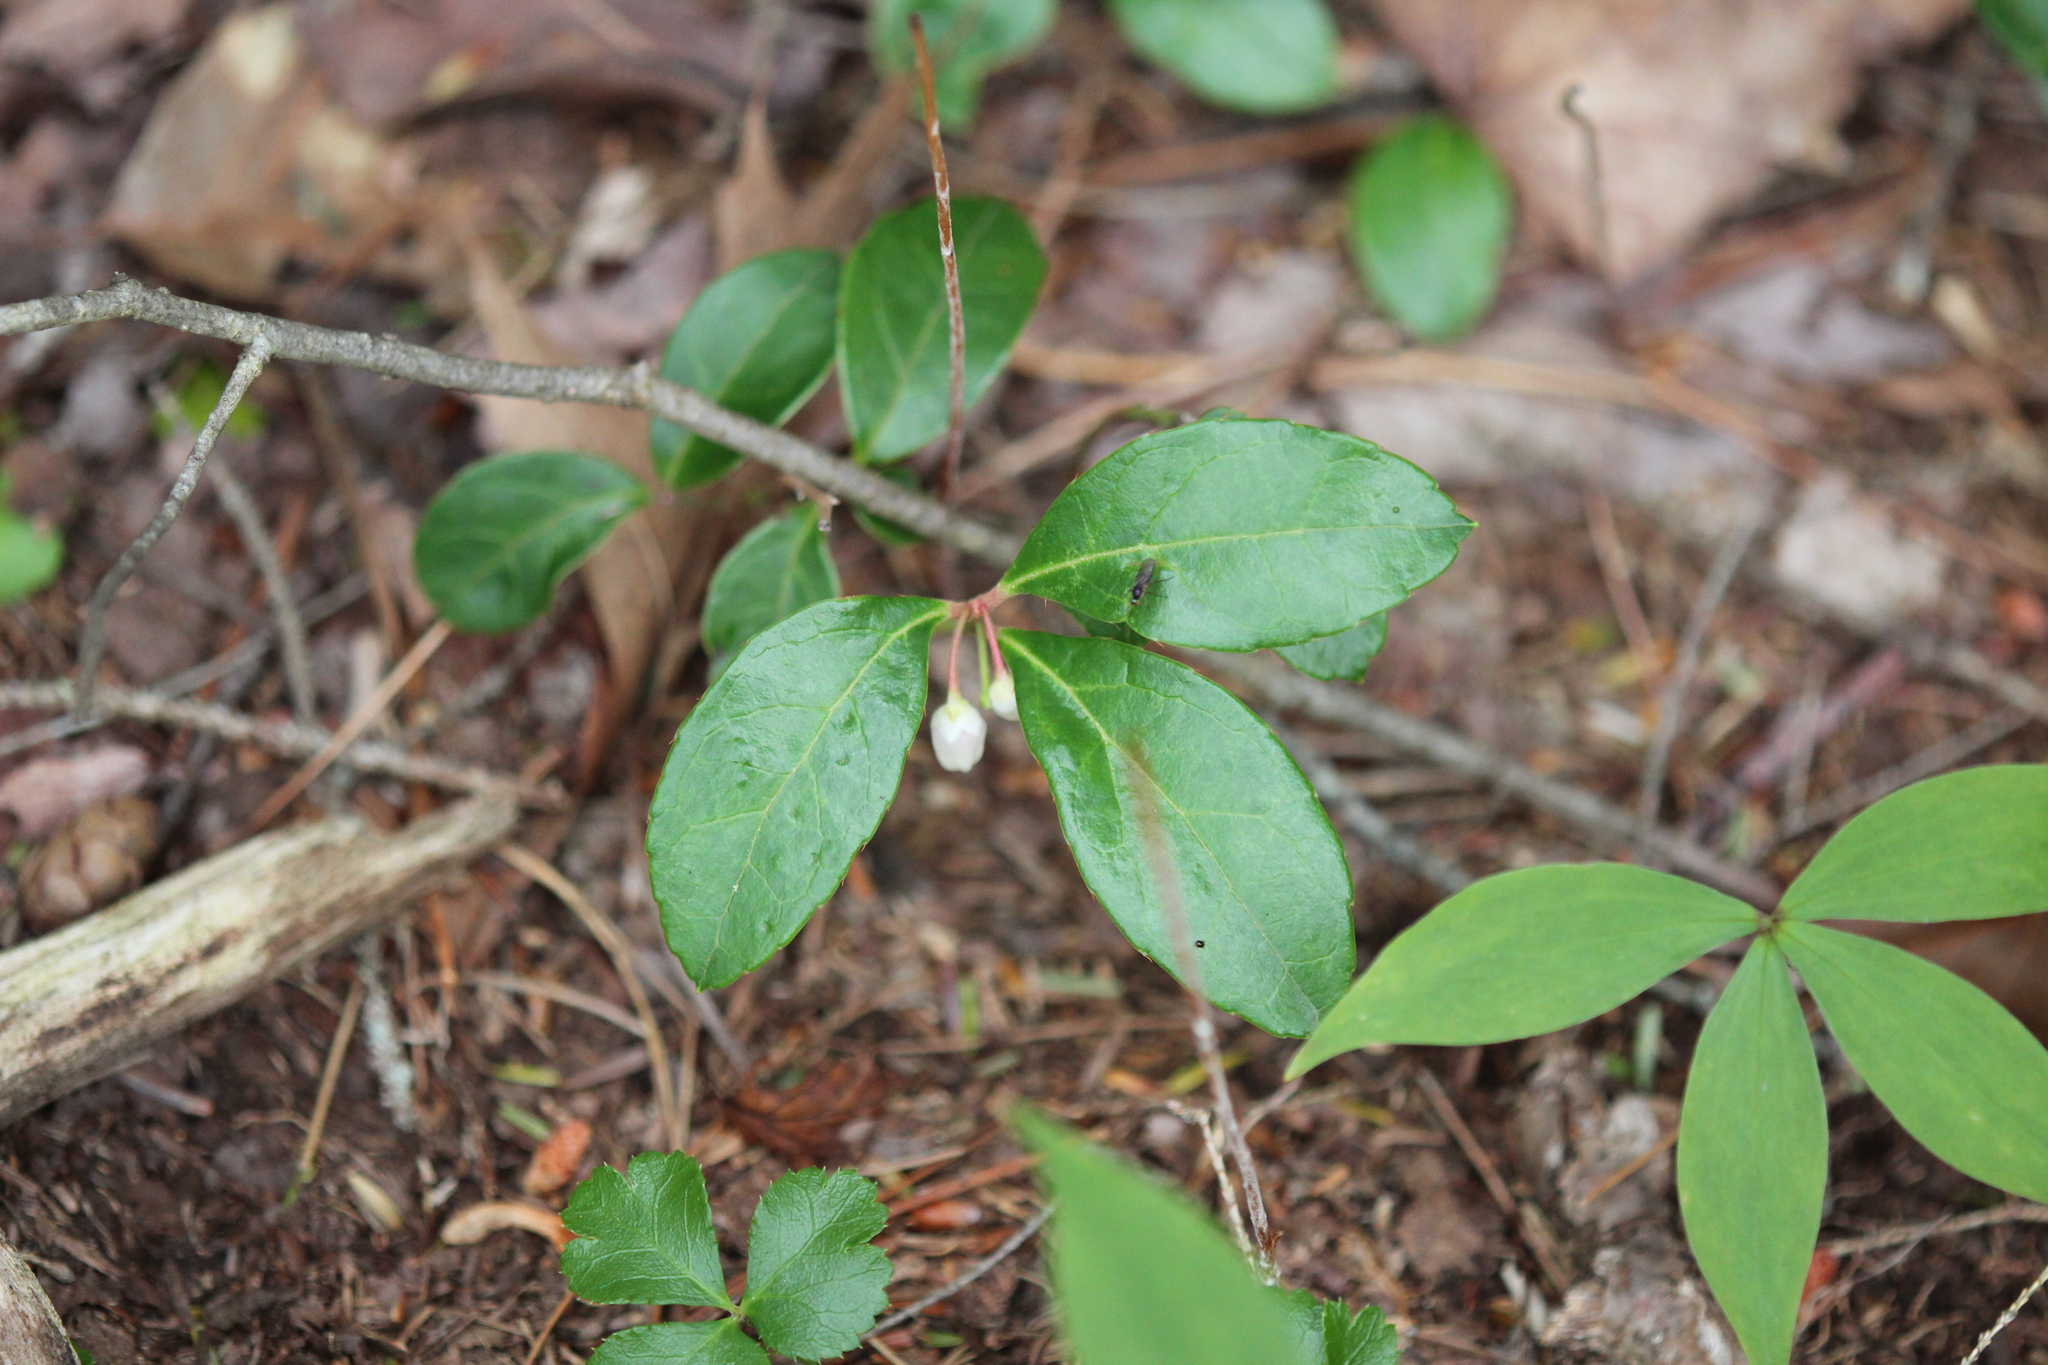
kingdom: Plantae
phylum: Tracheophyta
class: Magnoliopsida
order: Ericales
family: Ericaceae
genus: Gaultheria
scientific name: Gaultheria procumbens
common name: Checkerberry
